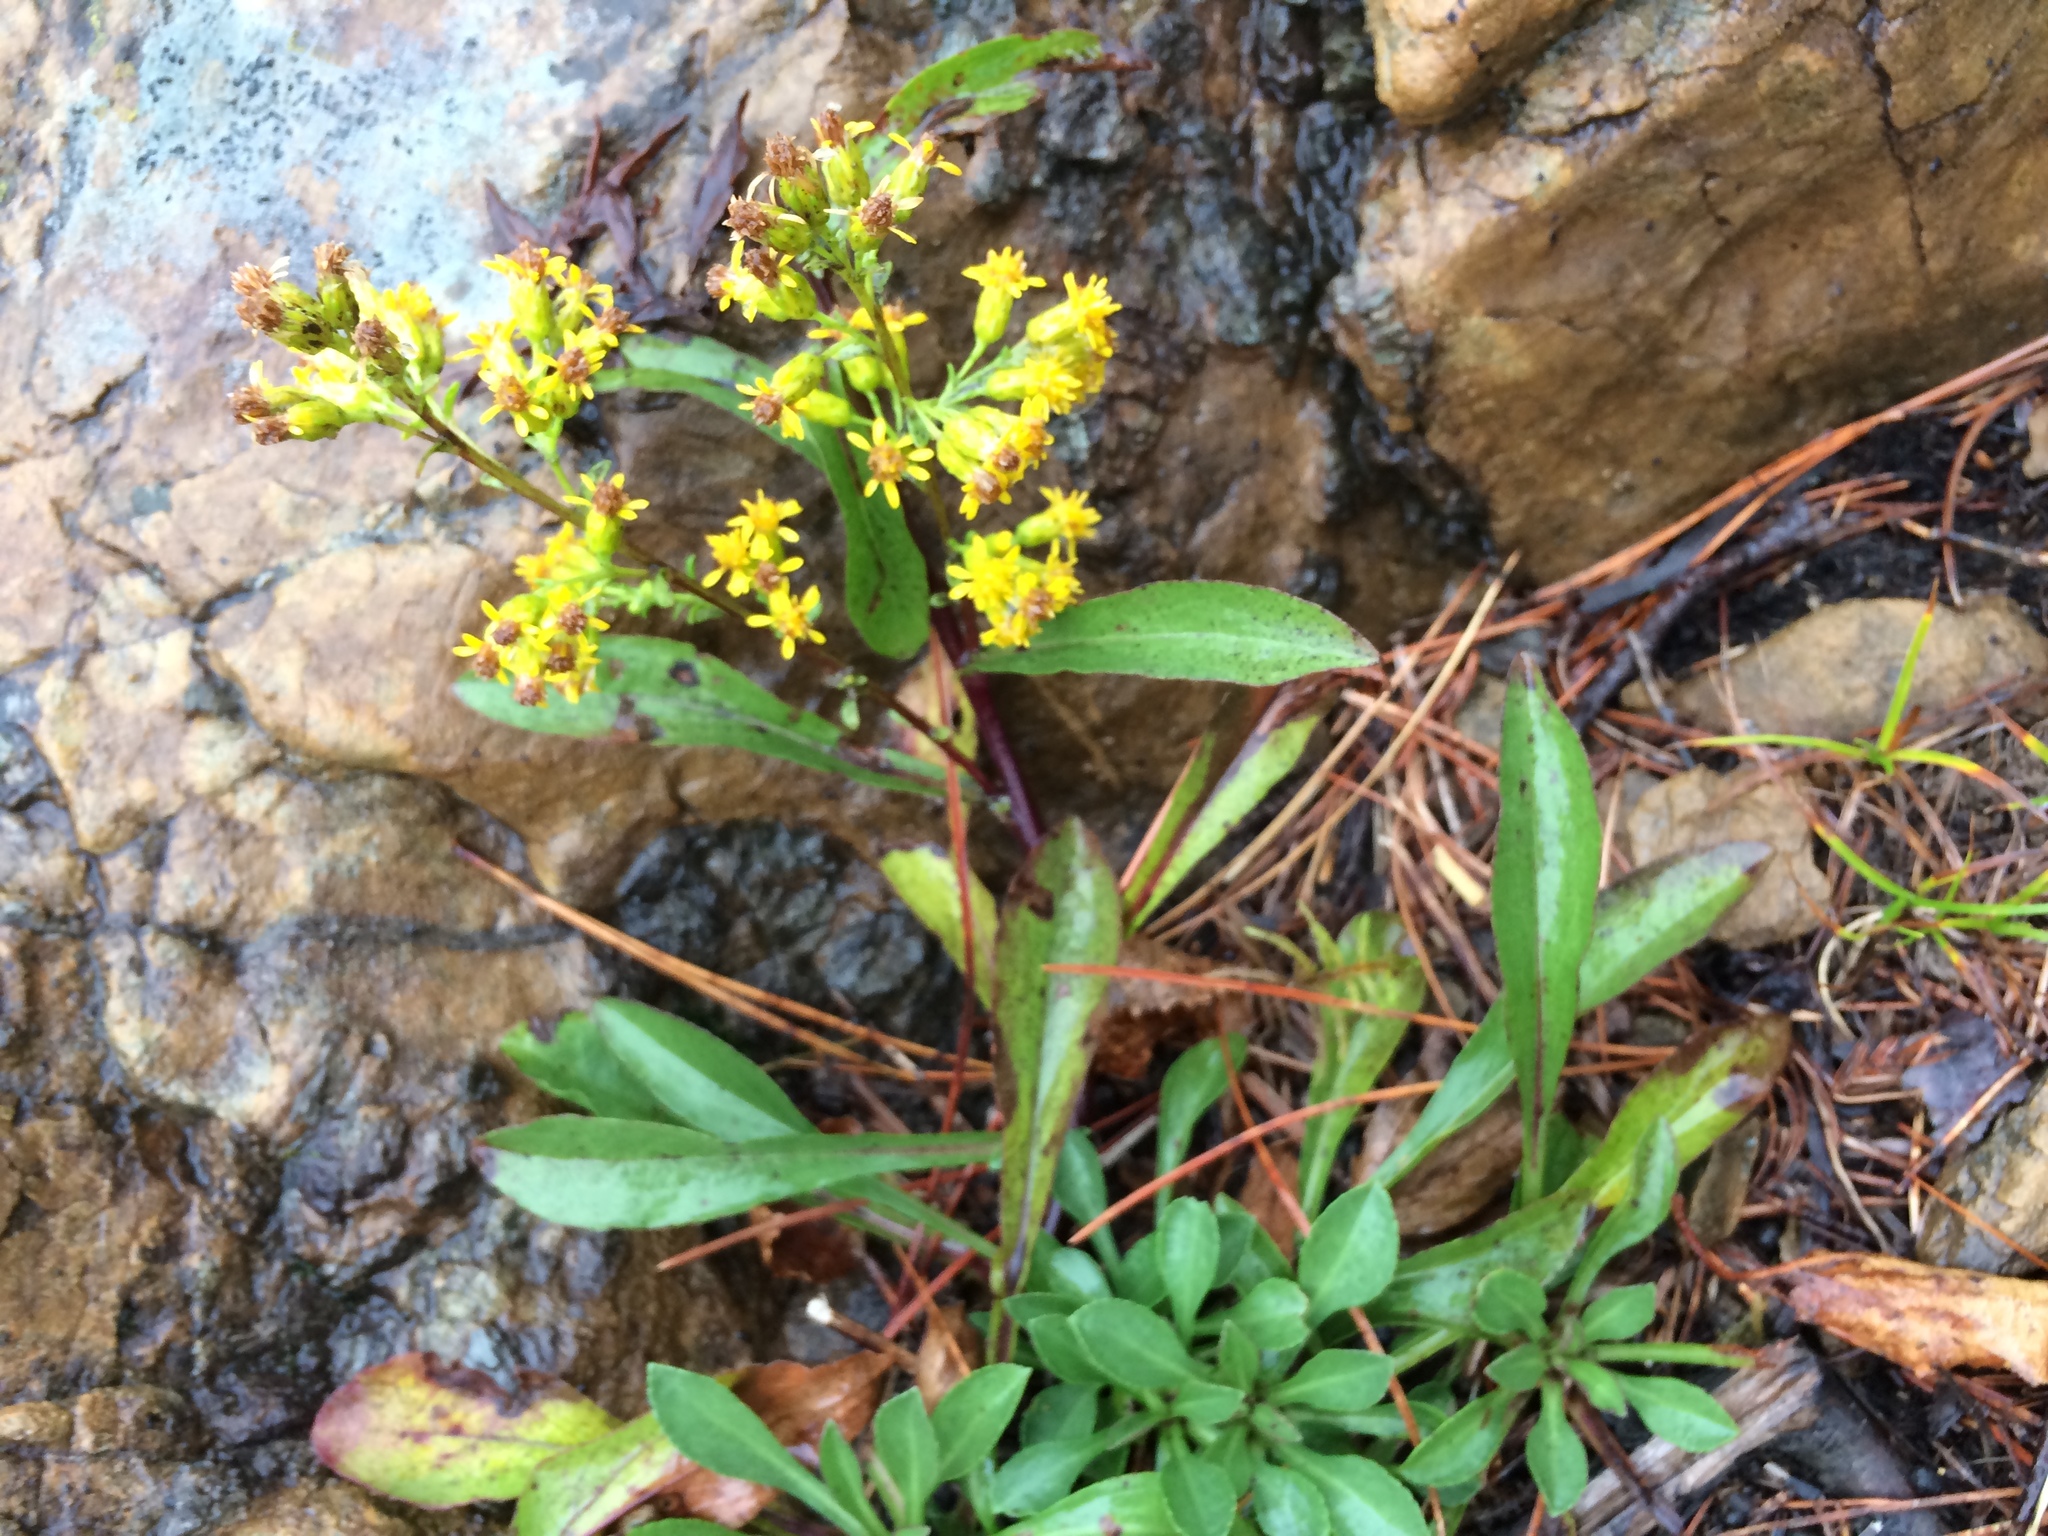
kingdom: Plantae
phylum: Tracheophyta
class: Magnoliopsida
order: Asterales
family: Asteraceae
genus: Solidago
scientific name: Solidago randii
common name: Rand's goldenrod
